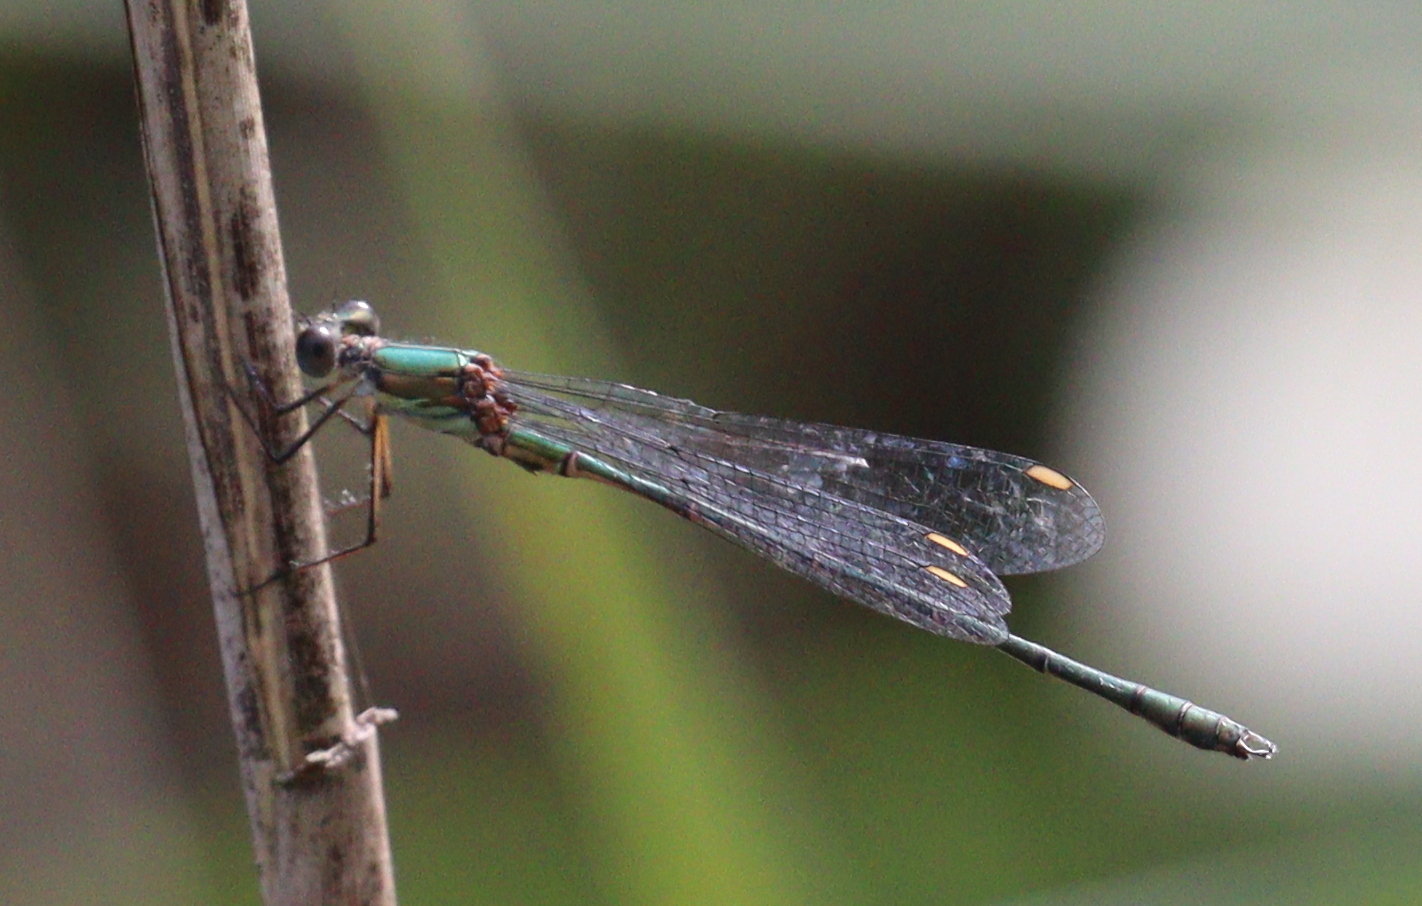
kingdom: Animalia
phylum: Arthropoda
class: Insecta
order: Odonata
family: Lestidae
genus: Chalcolestes
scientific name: Chalcolestes viridis
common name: Green emerald damselfly
